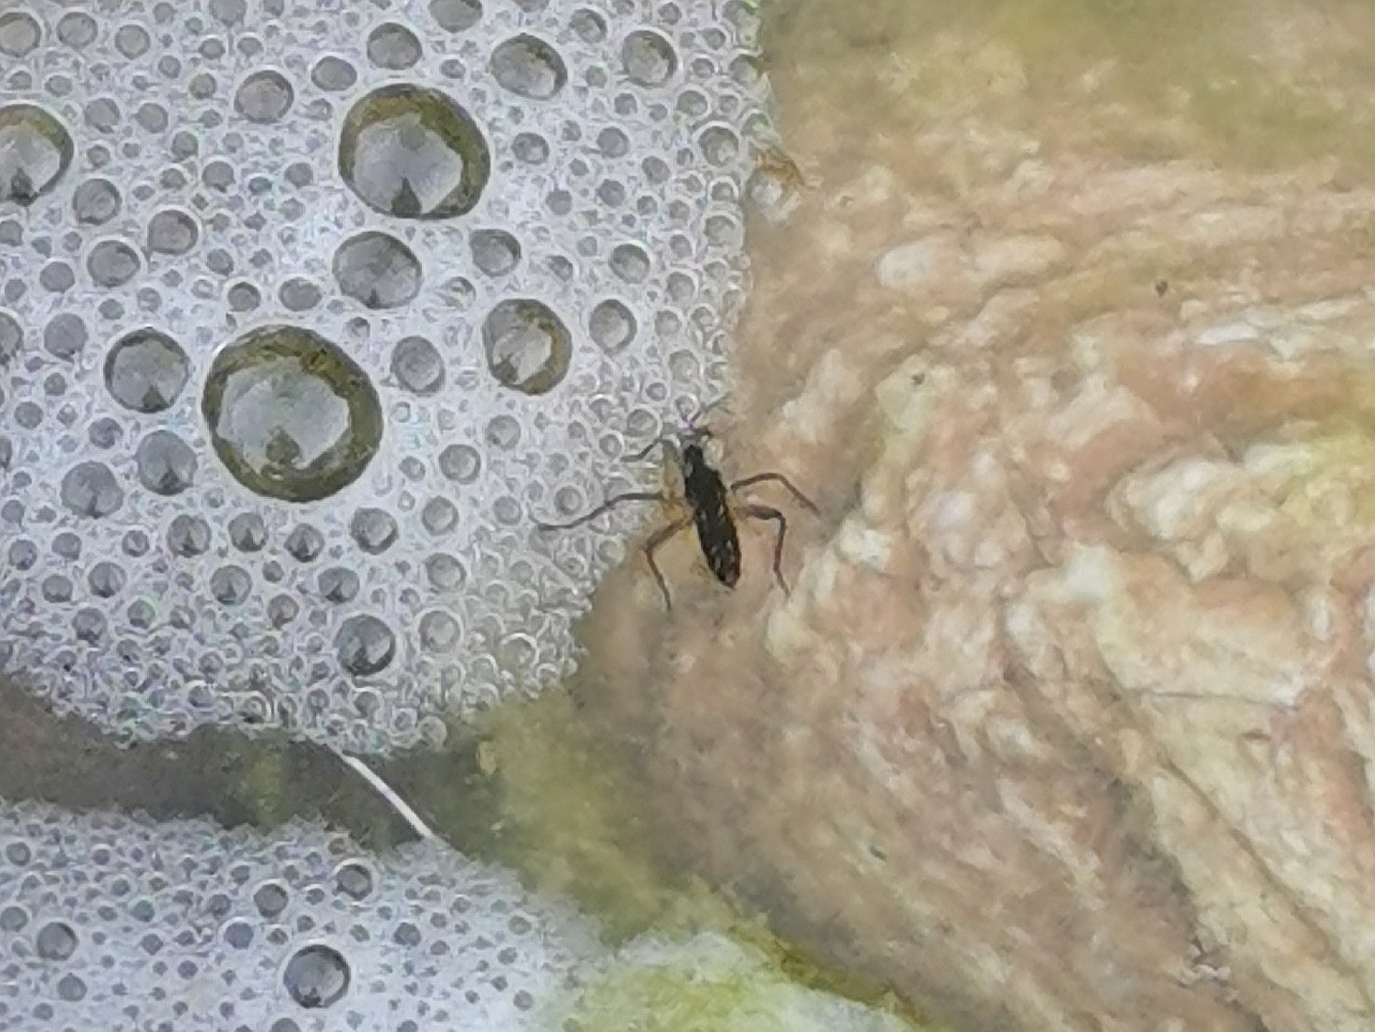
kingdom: Animalia
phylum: Arthropoda
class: Insecta
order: Hemiptera
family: Veliidae
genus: Velia
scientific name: Velia
